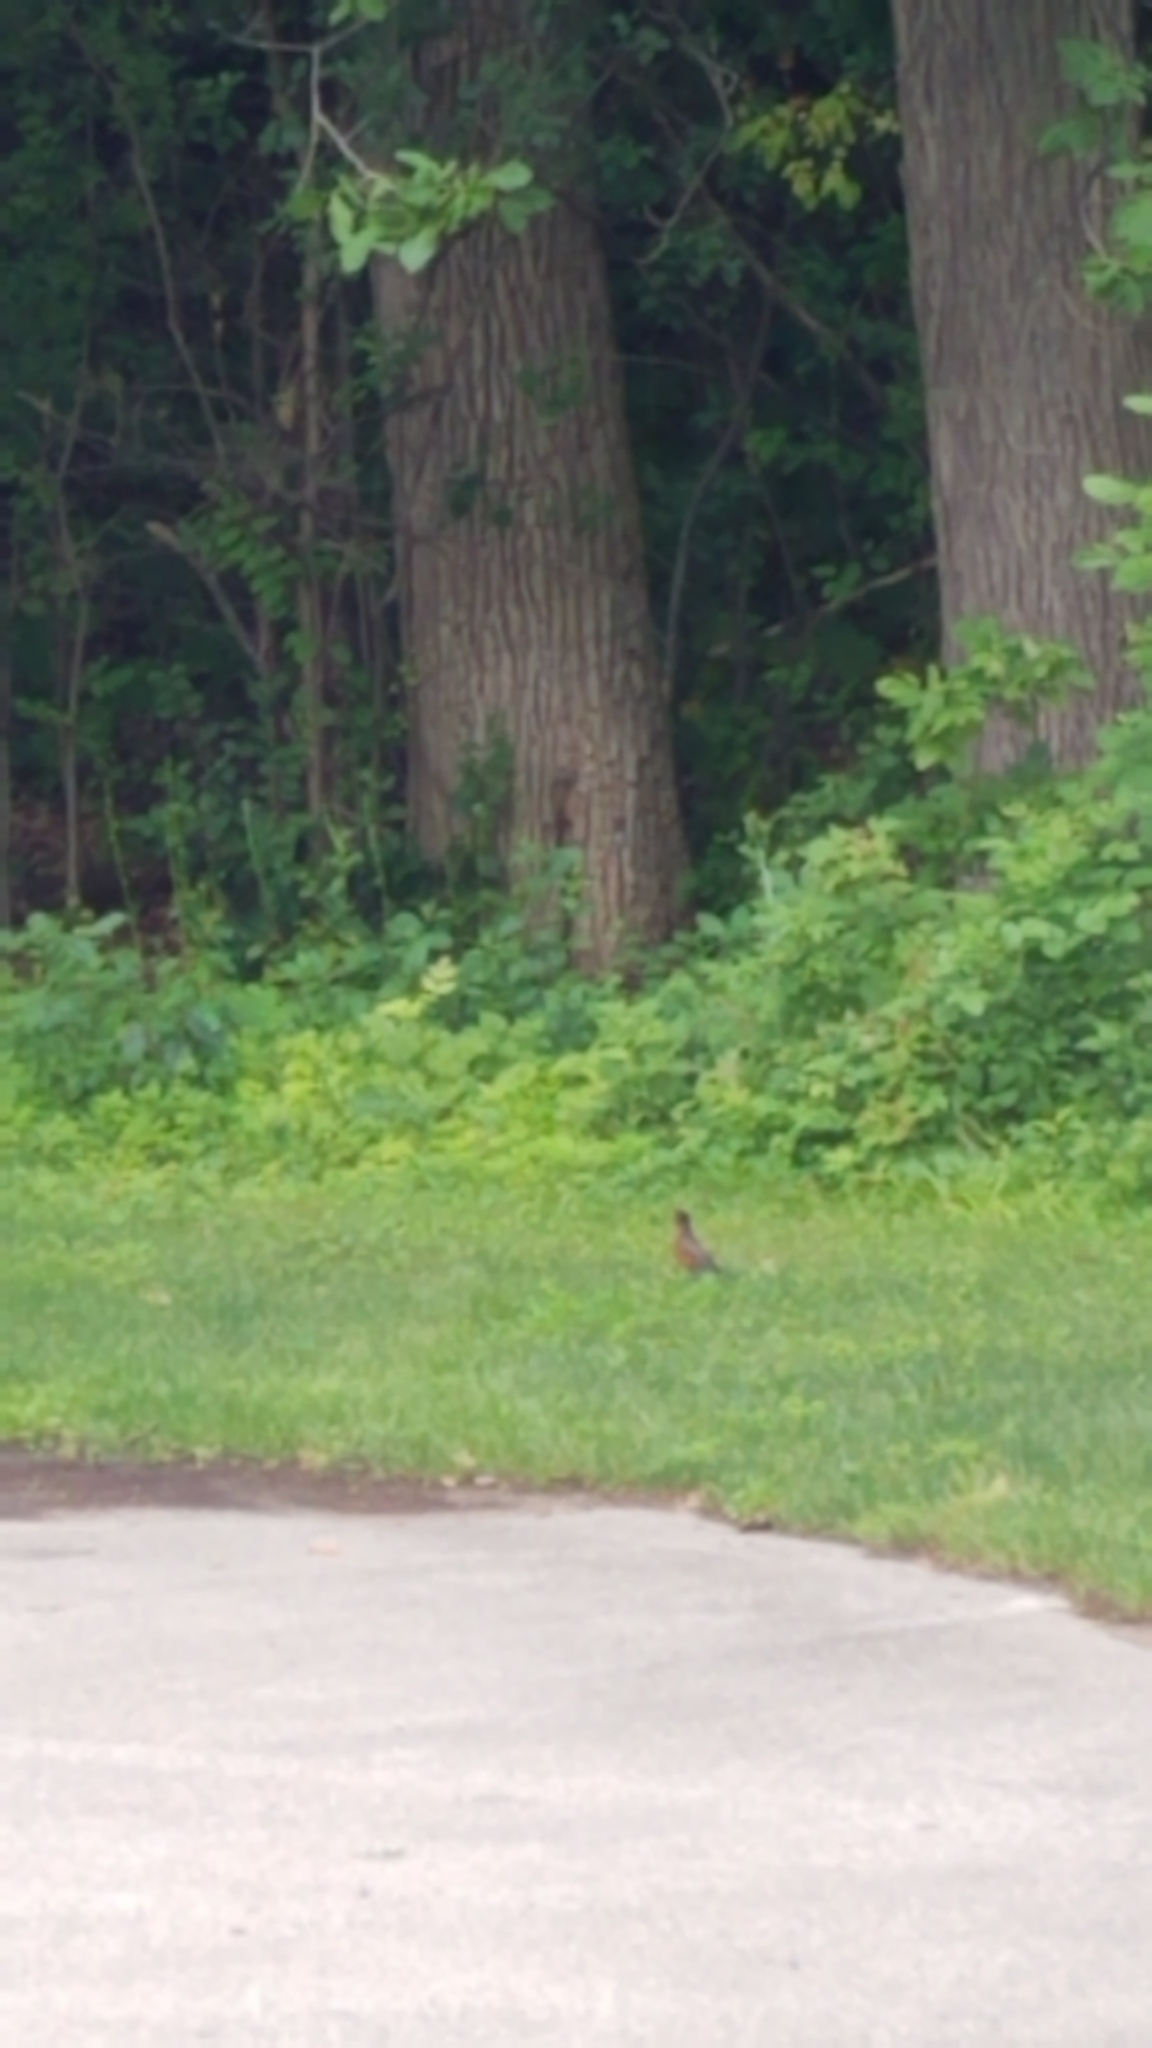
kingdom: Animalia
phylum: Chordata
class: Aves
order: Passeriformes
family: Turdidae
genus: Turdus
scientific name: Turdus migratorius
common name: American robin
